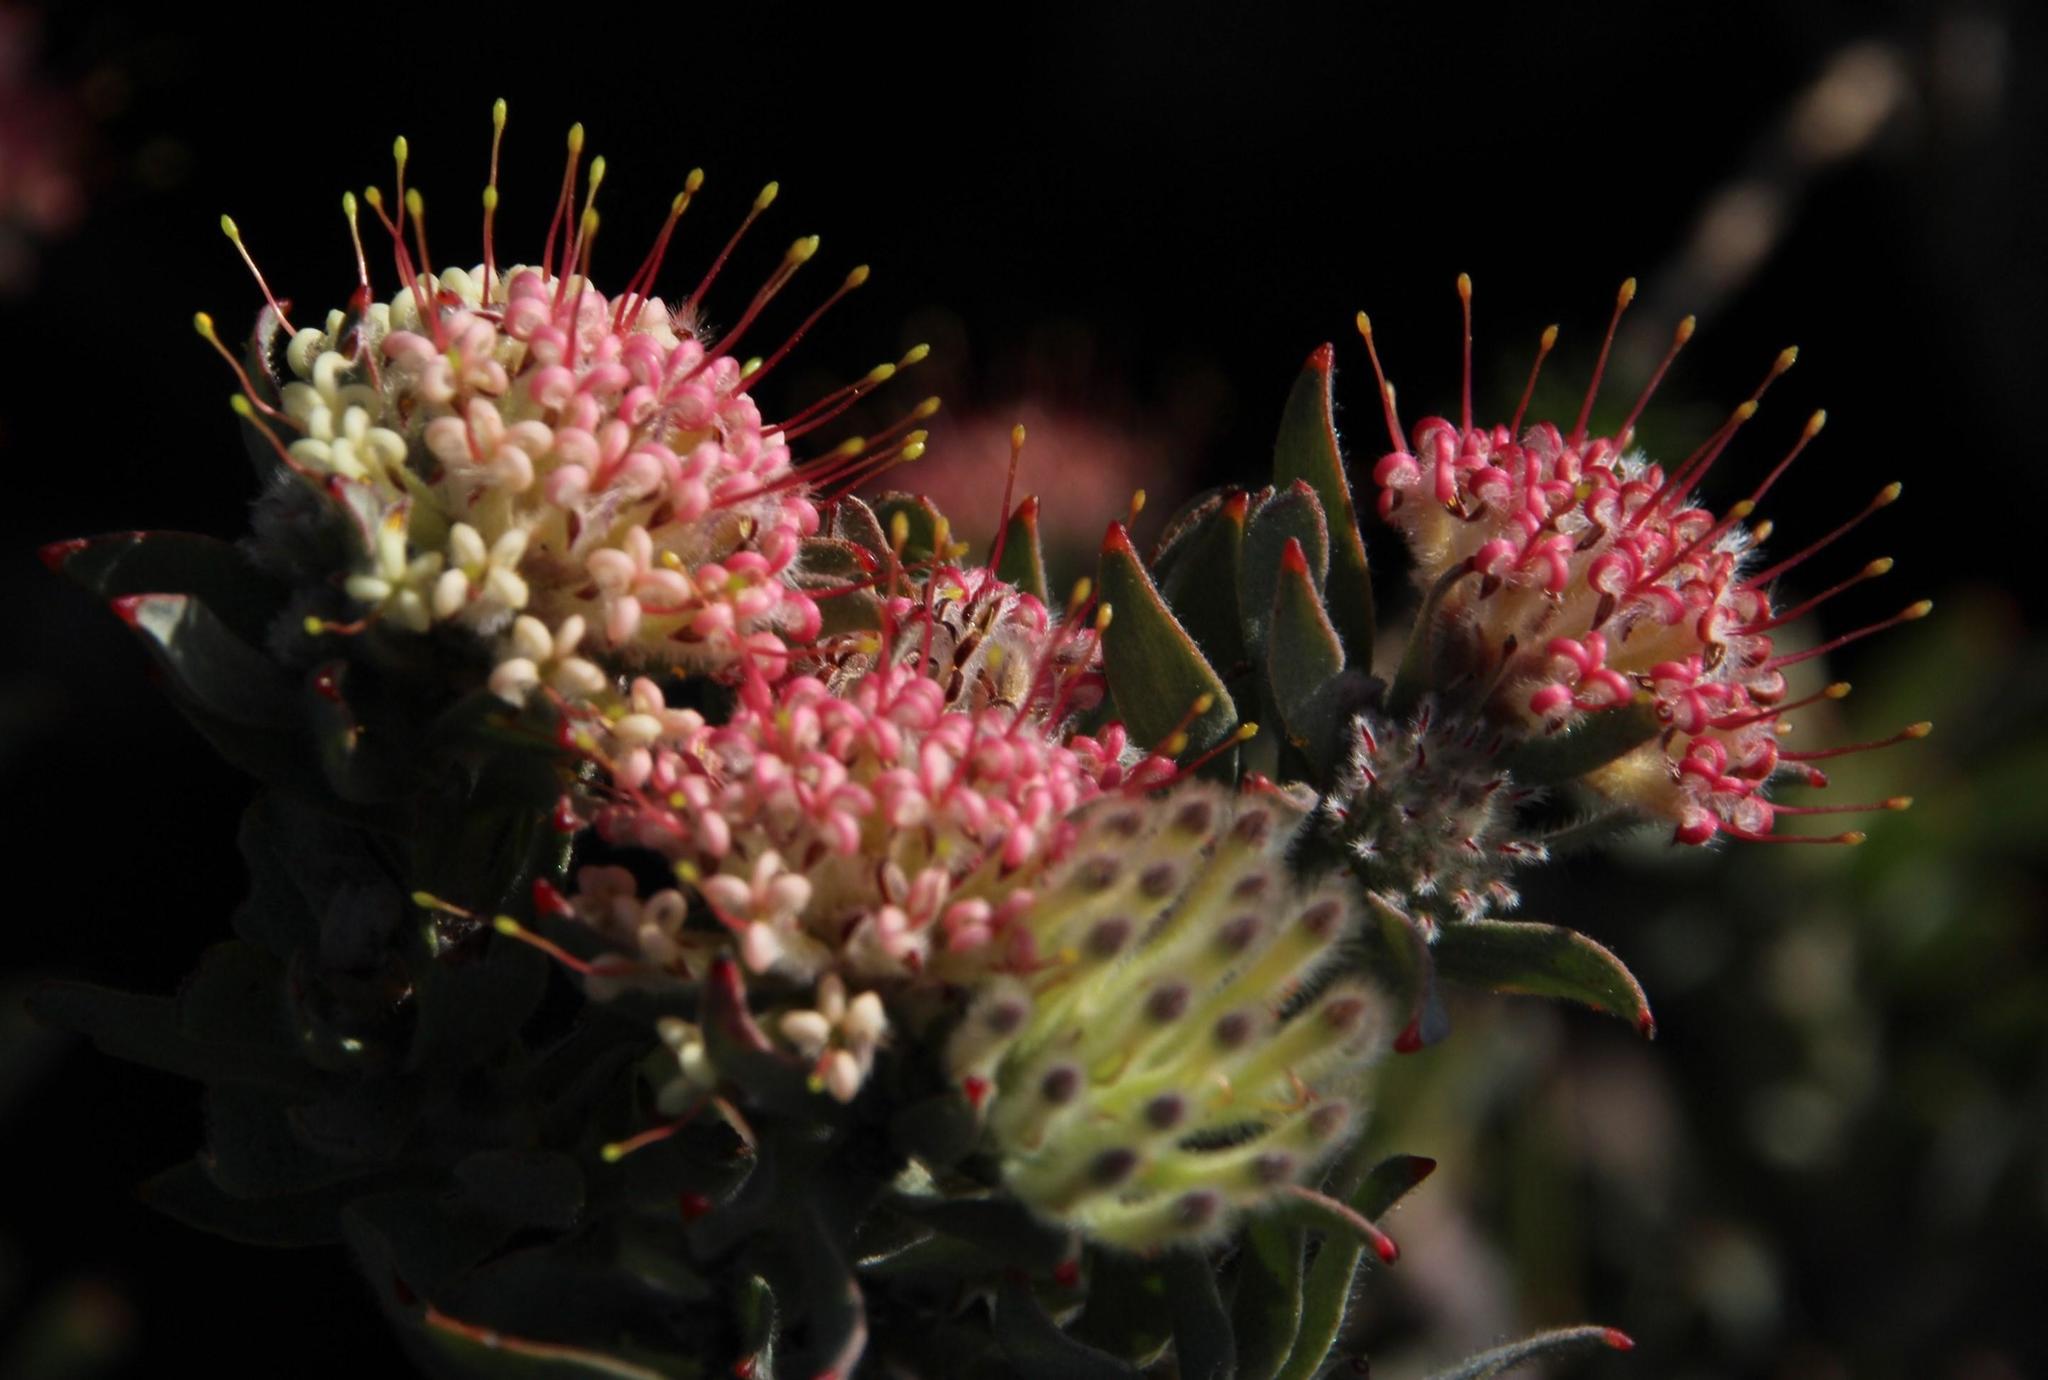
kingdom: Plantae
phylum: Tracheophyta
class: Magnoliopsida
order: Proteales
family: Proteaceae
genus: Leucospermum
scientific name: Leucospermum wittebergense
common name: Swartberg pincushion
